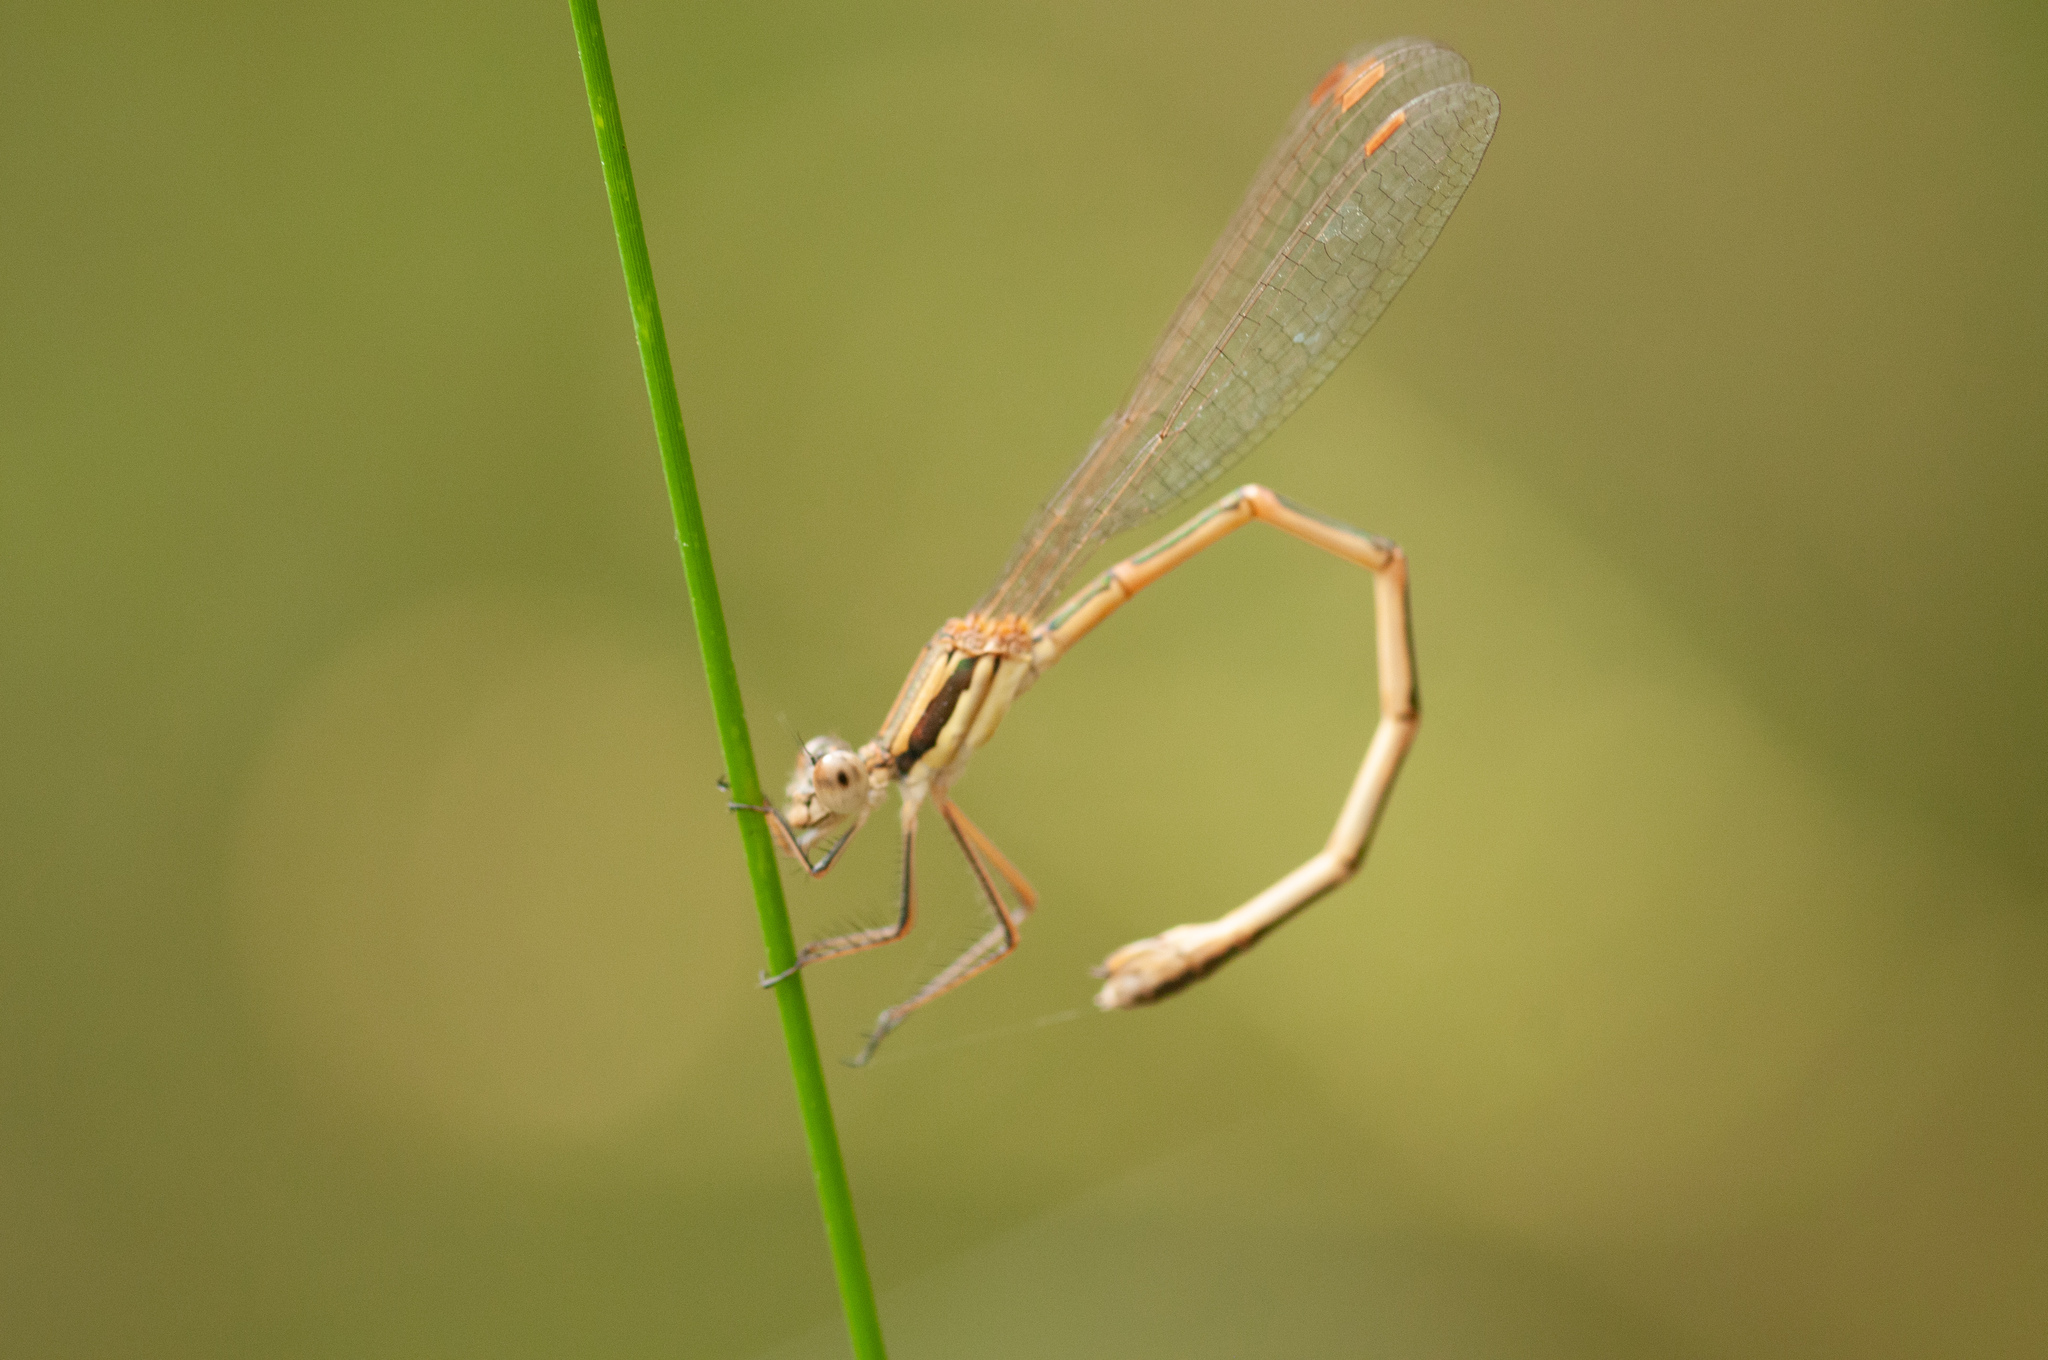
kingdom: Animalia
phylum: Arthropoda
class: Insecta
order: Odonata
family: Lestidae
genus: Austrolestes
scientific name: Austrolestes analis
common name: Slender ringtail
